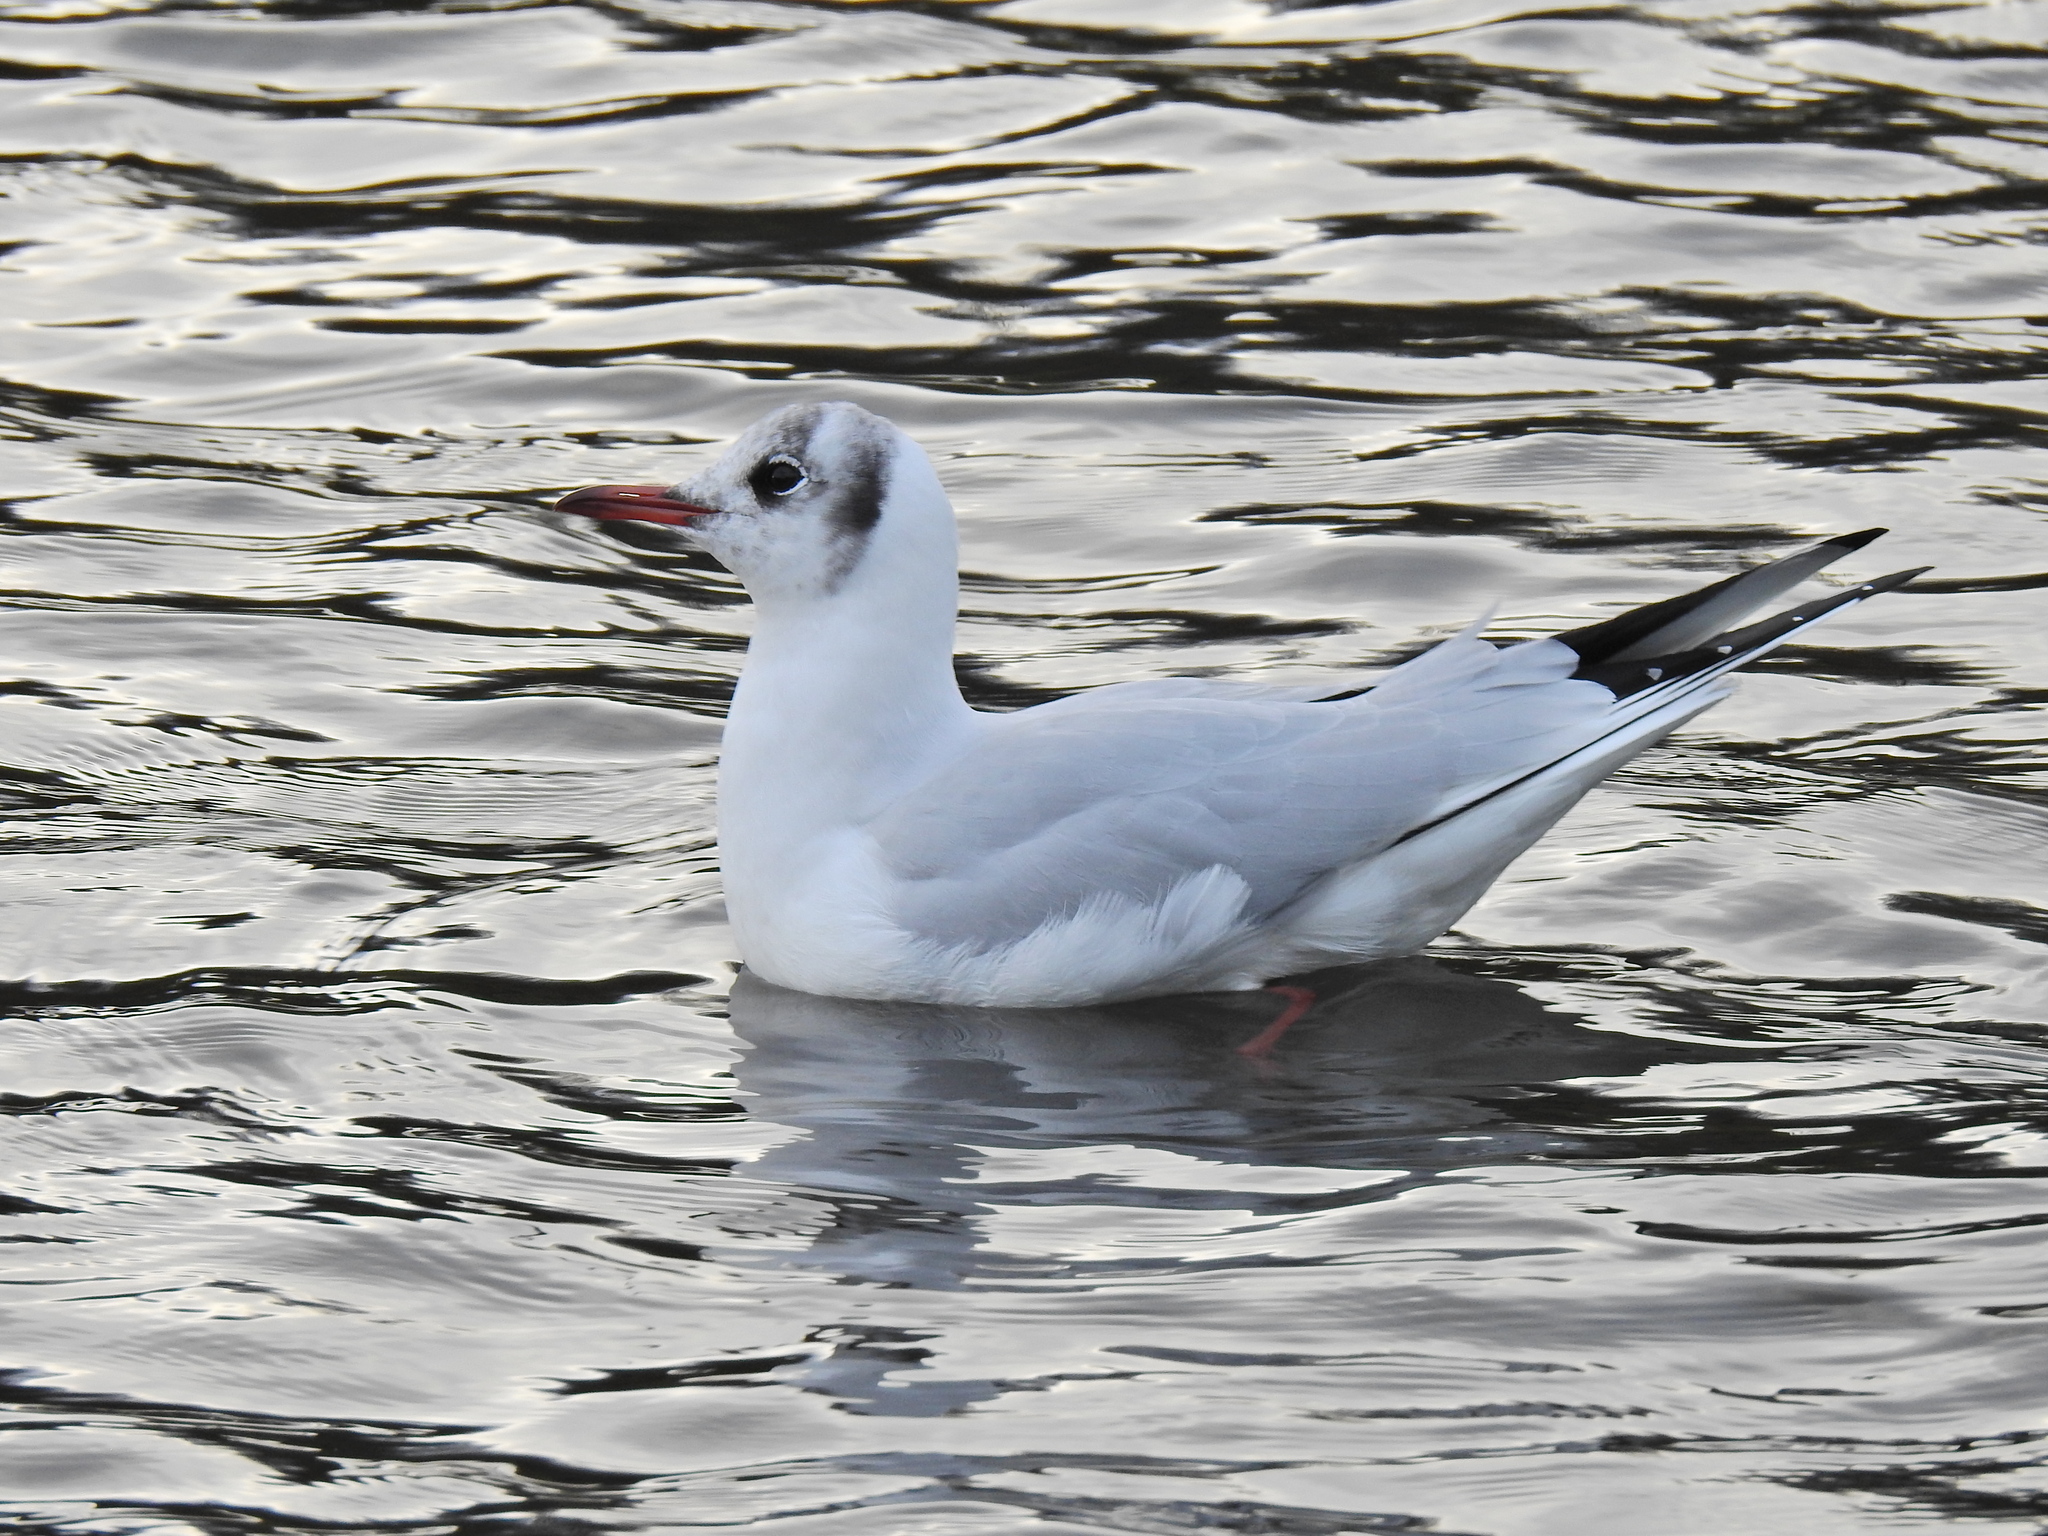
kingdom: Animalia
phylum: Chordata
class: Aves
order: Charadriiformes
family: Laridae
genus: Chroicocephalus
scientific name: Chroicocephalus ridibundus
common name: Black-headed gull
